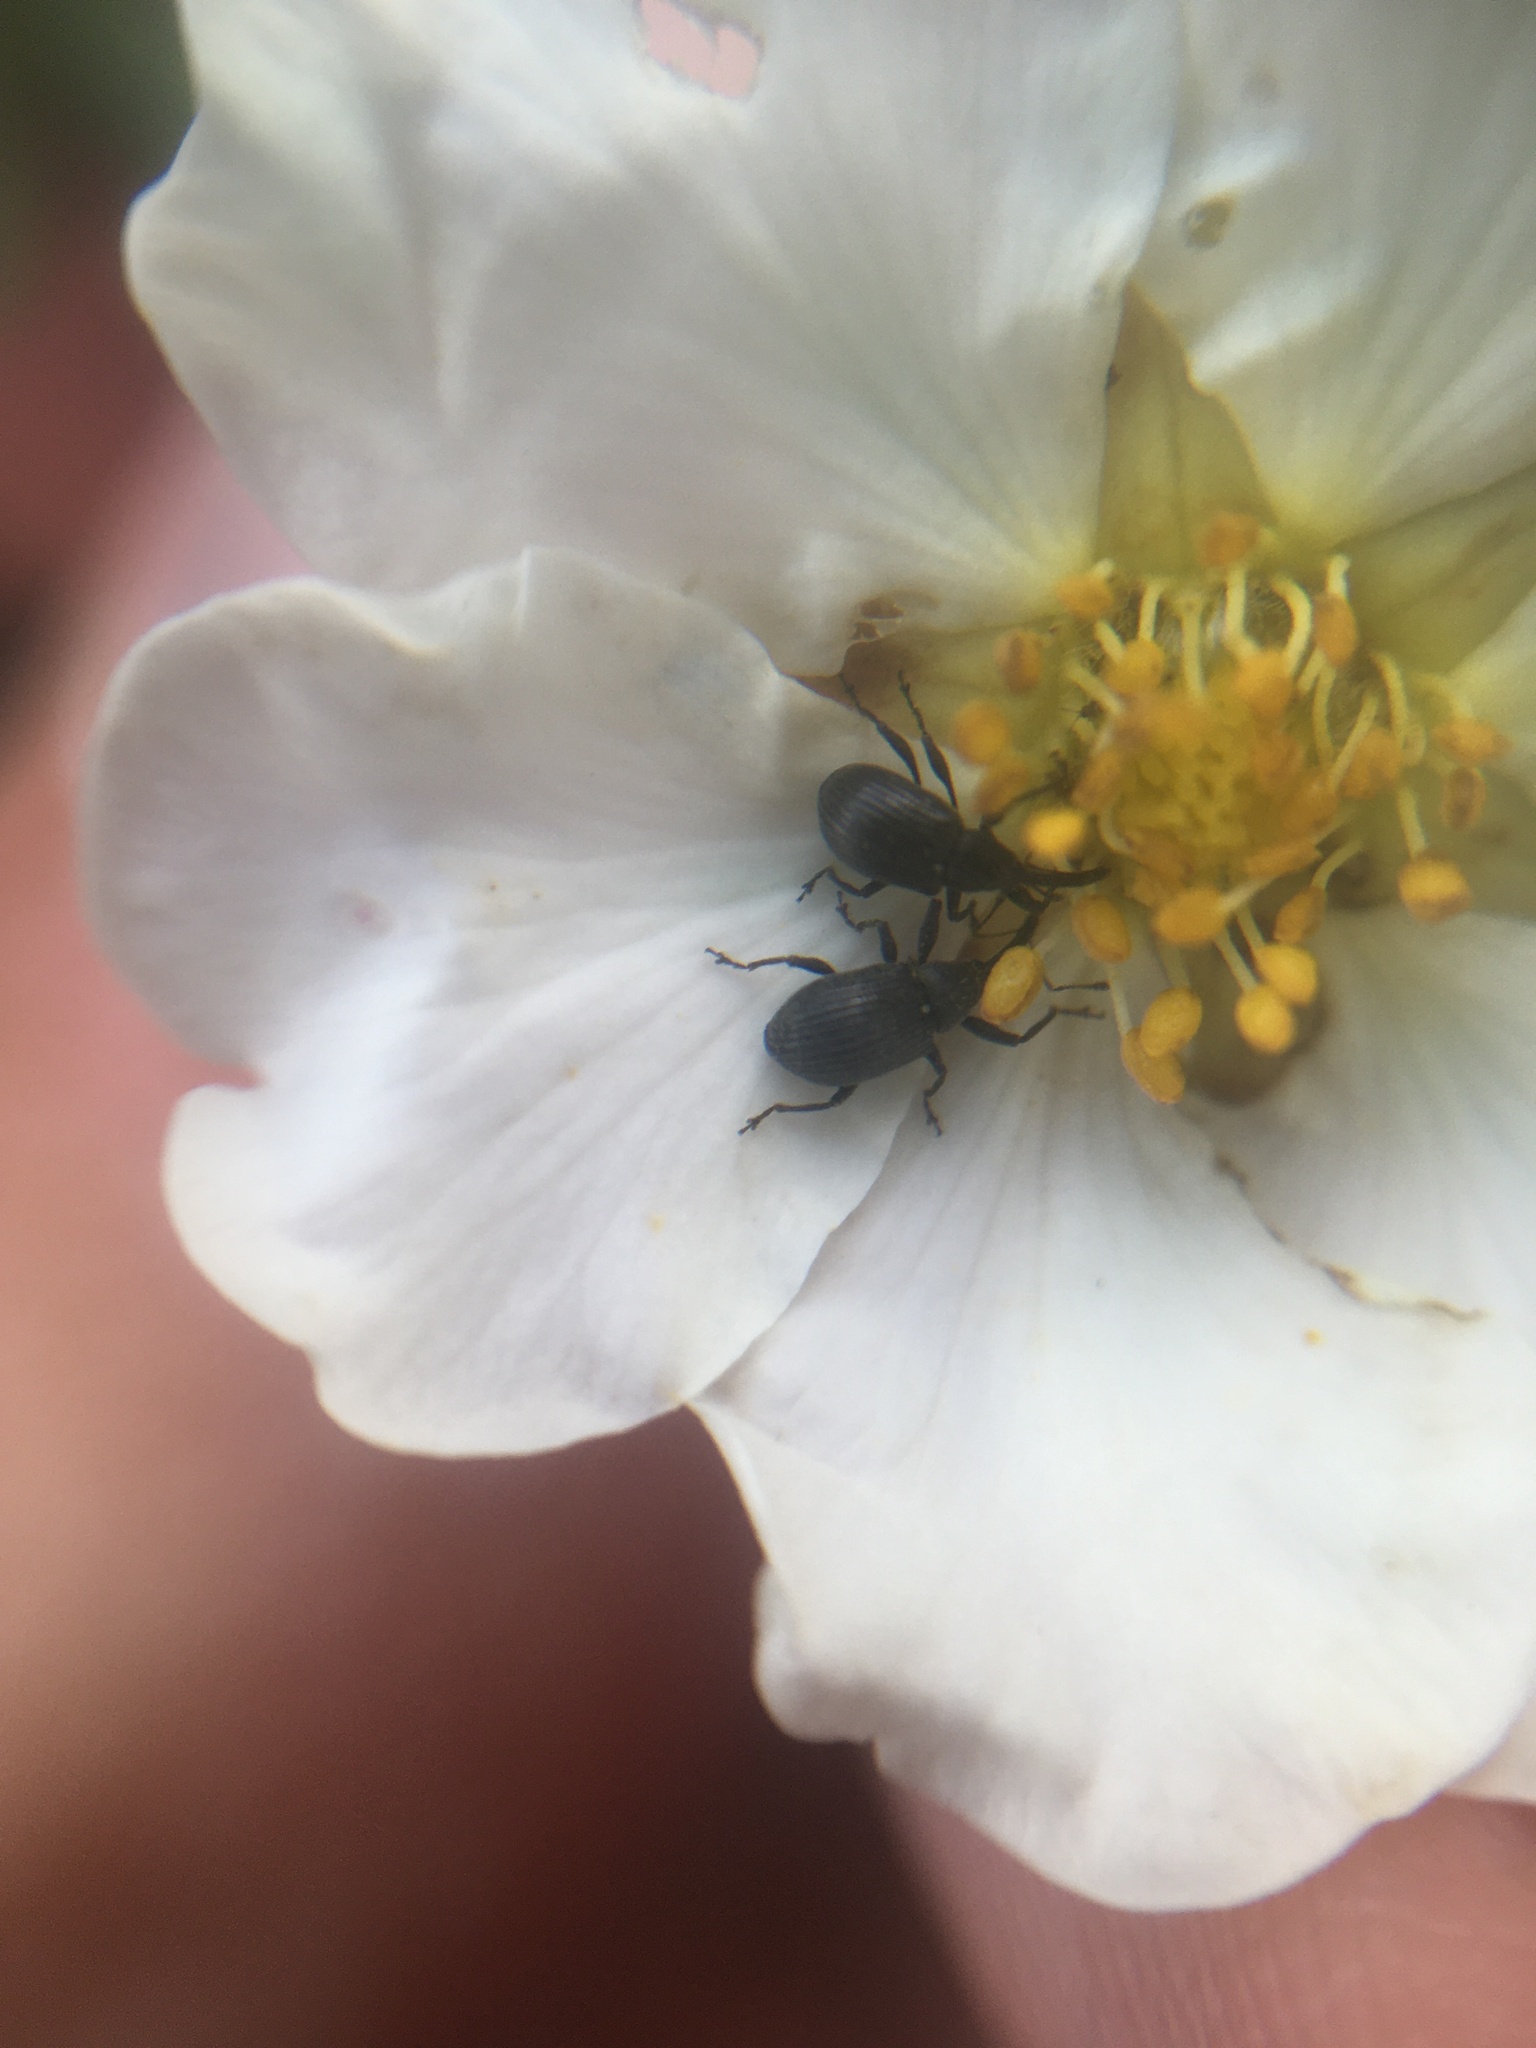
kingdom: Animalia
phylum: Arthropoda
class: Insecta
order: Coleoptera
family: Curculionidae
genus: Anthonomus
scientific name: Anthonomus rubi
